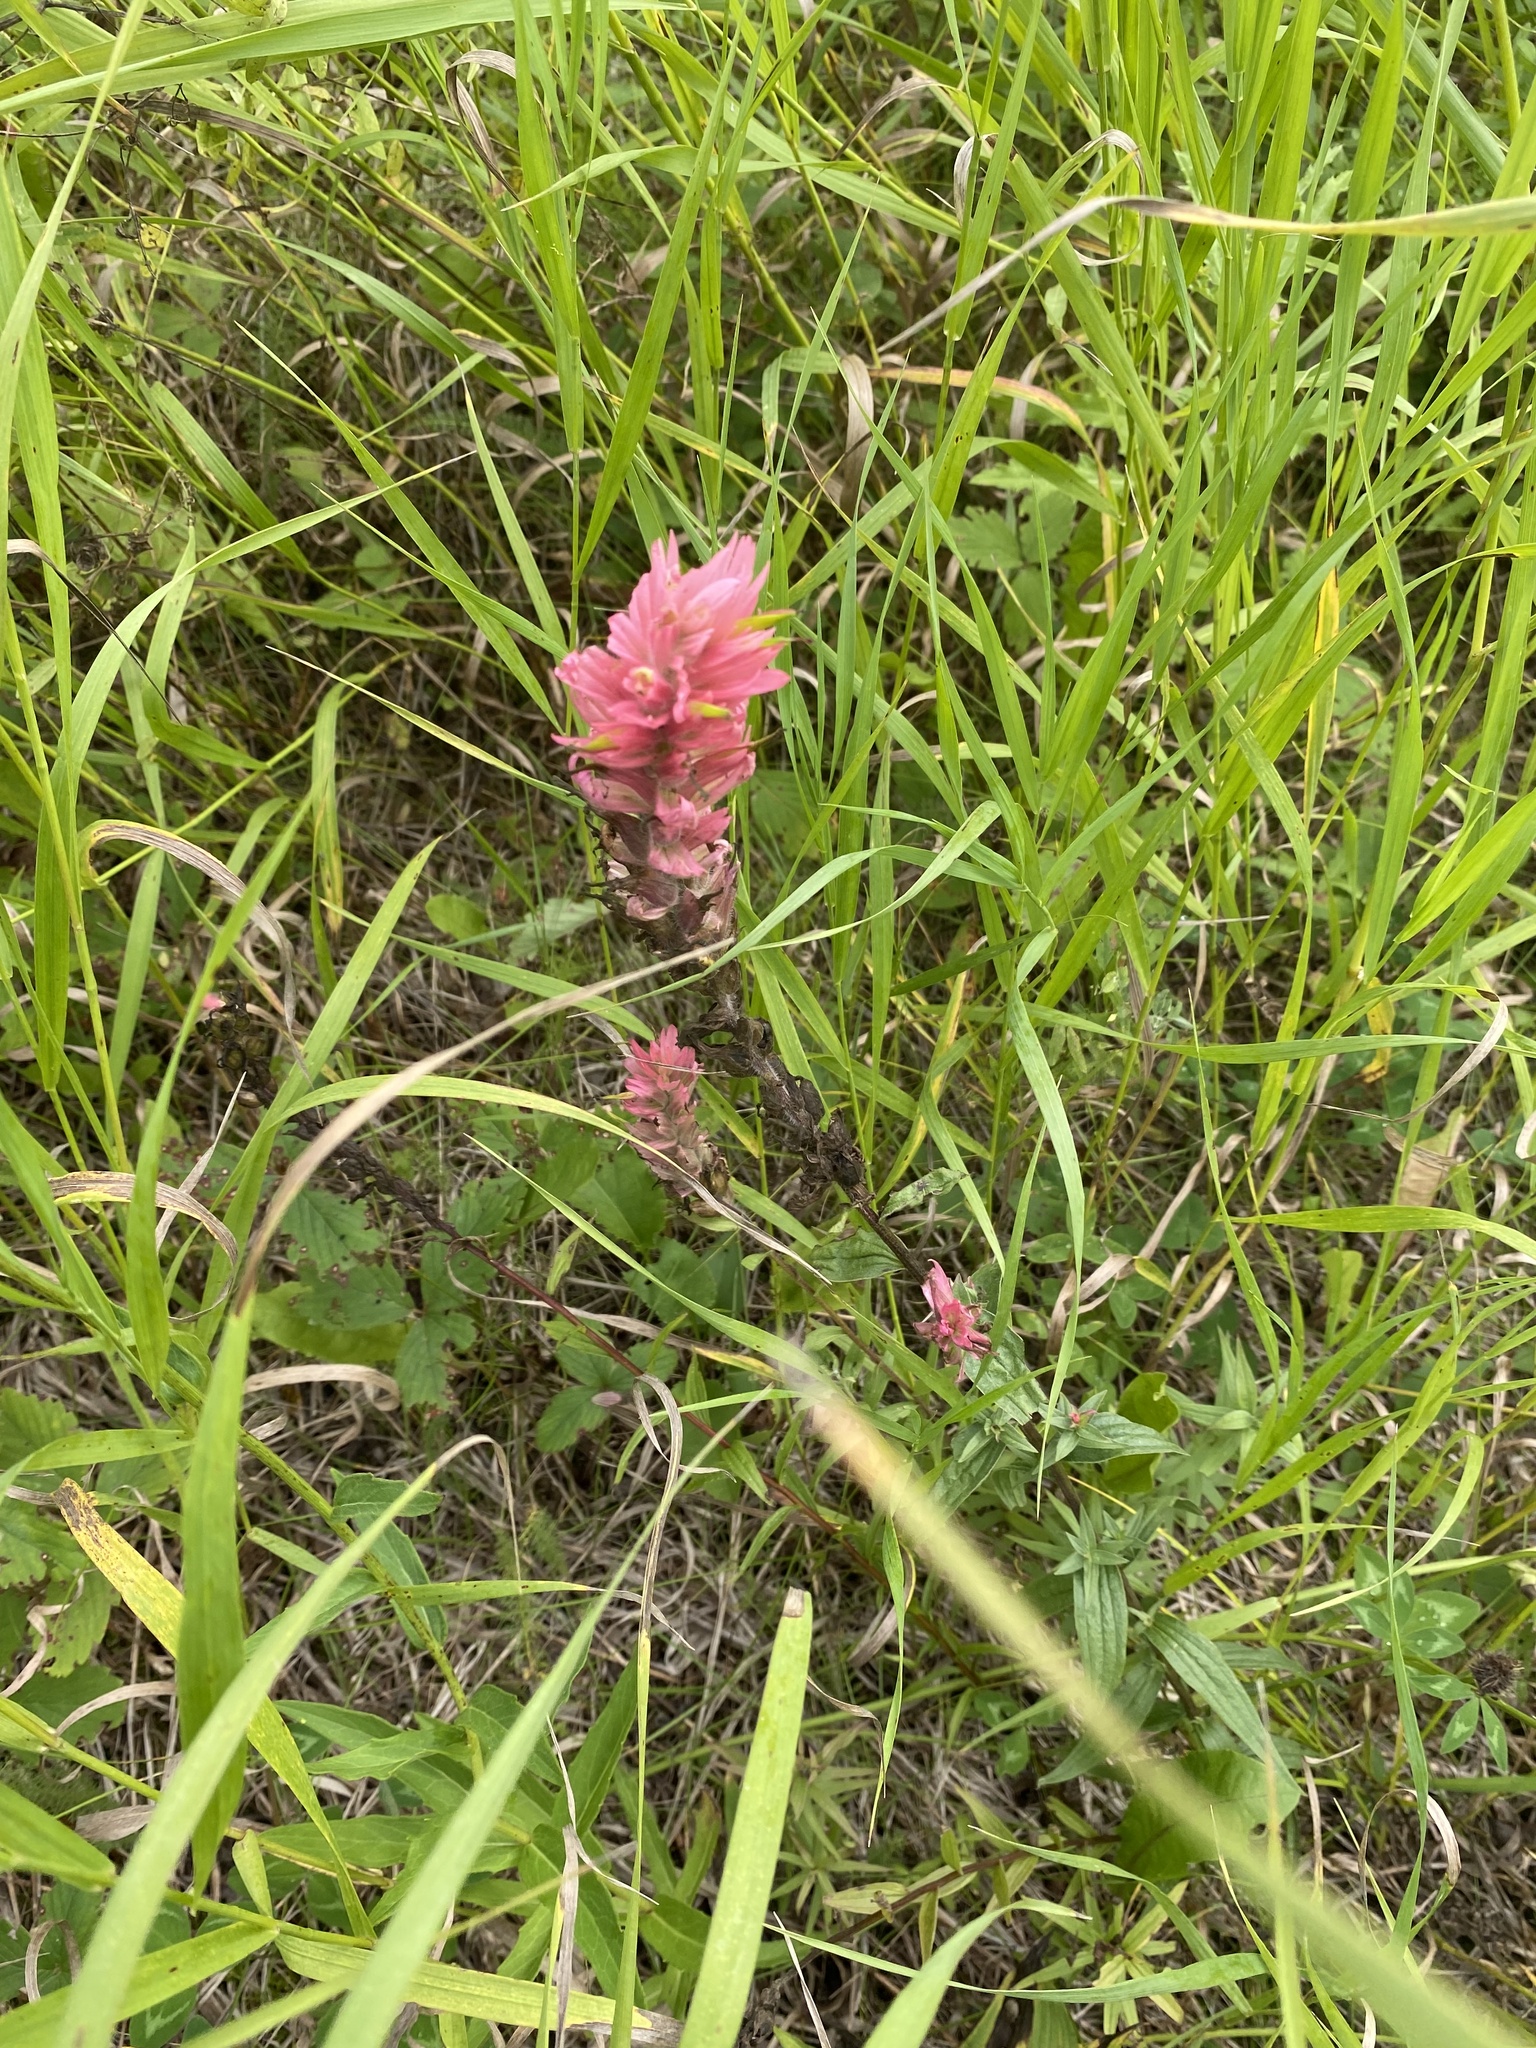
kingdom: Plantae
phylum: Tracheophyta
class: Magnoliopsida
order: Lamiales
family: Orobanchaceae
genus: Castilleja
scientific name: Castilleja miniata
